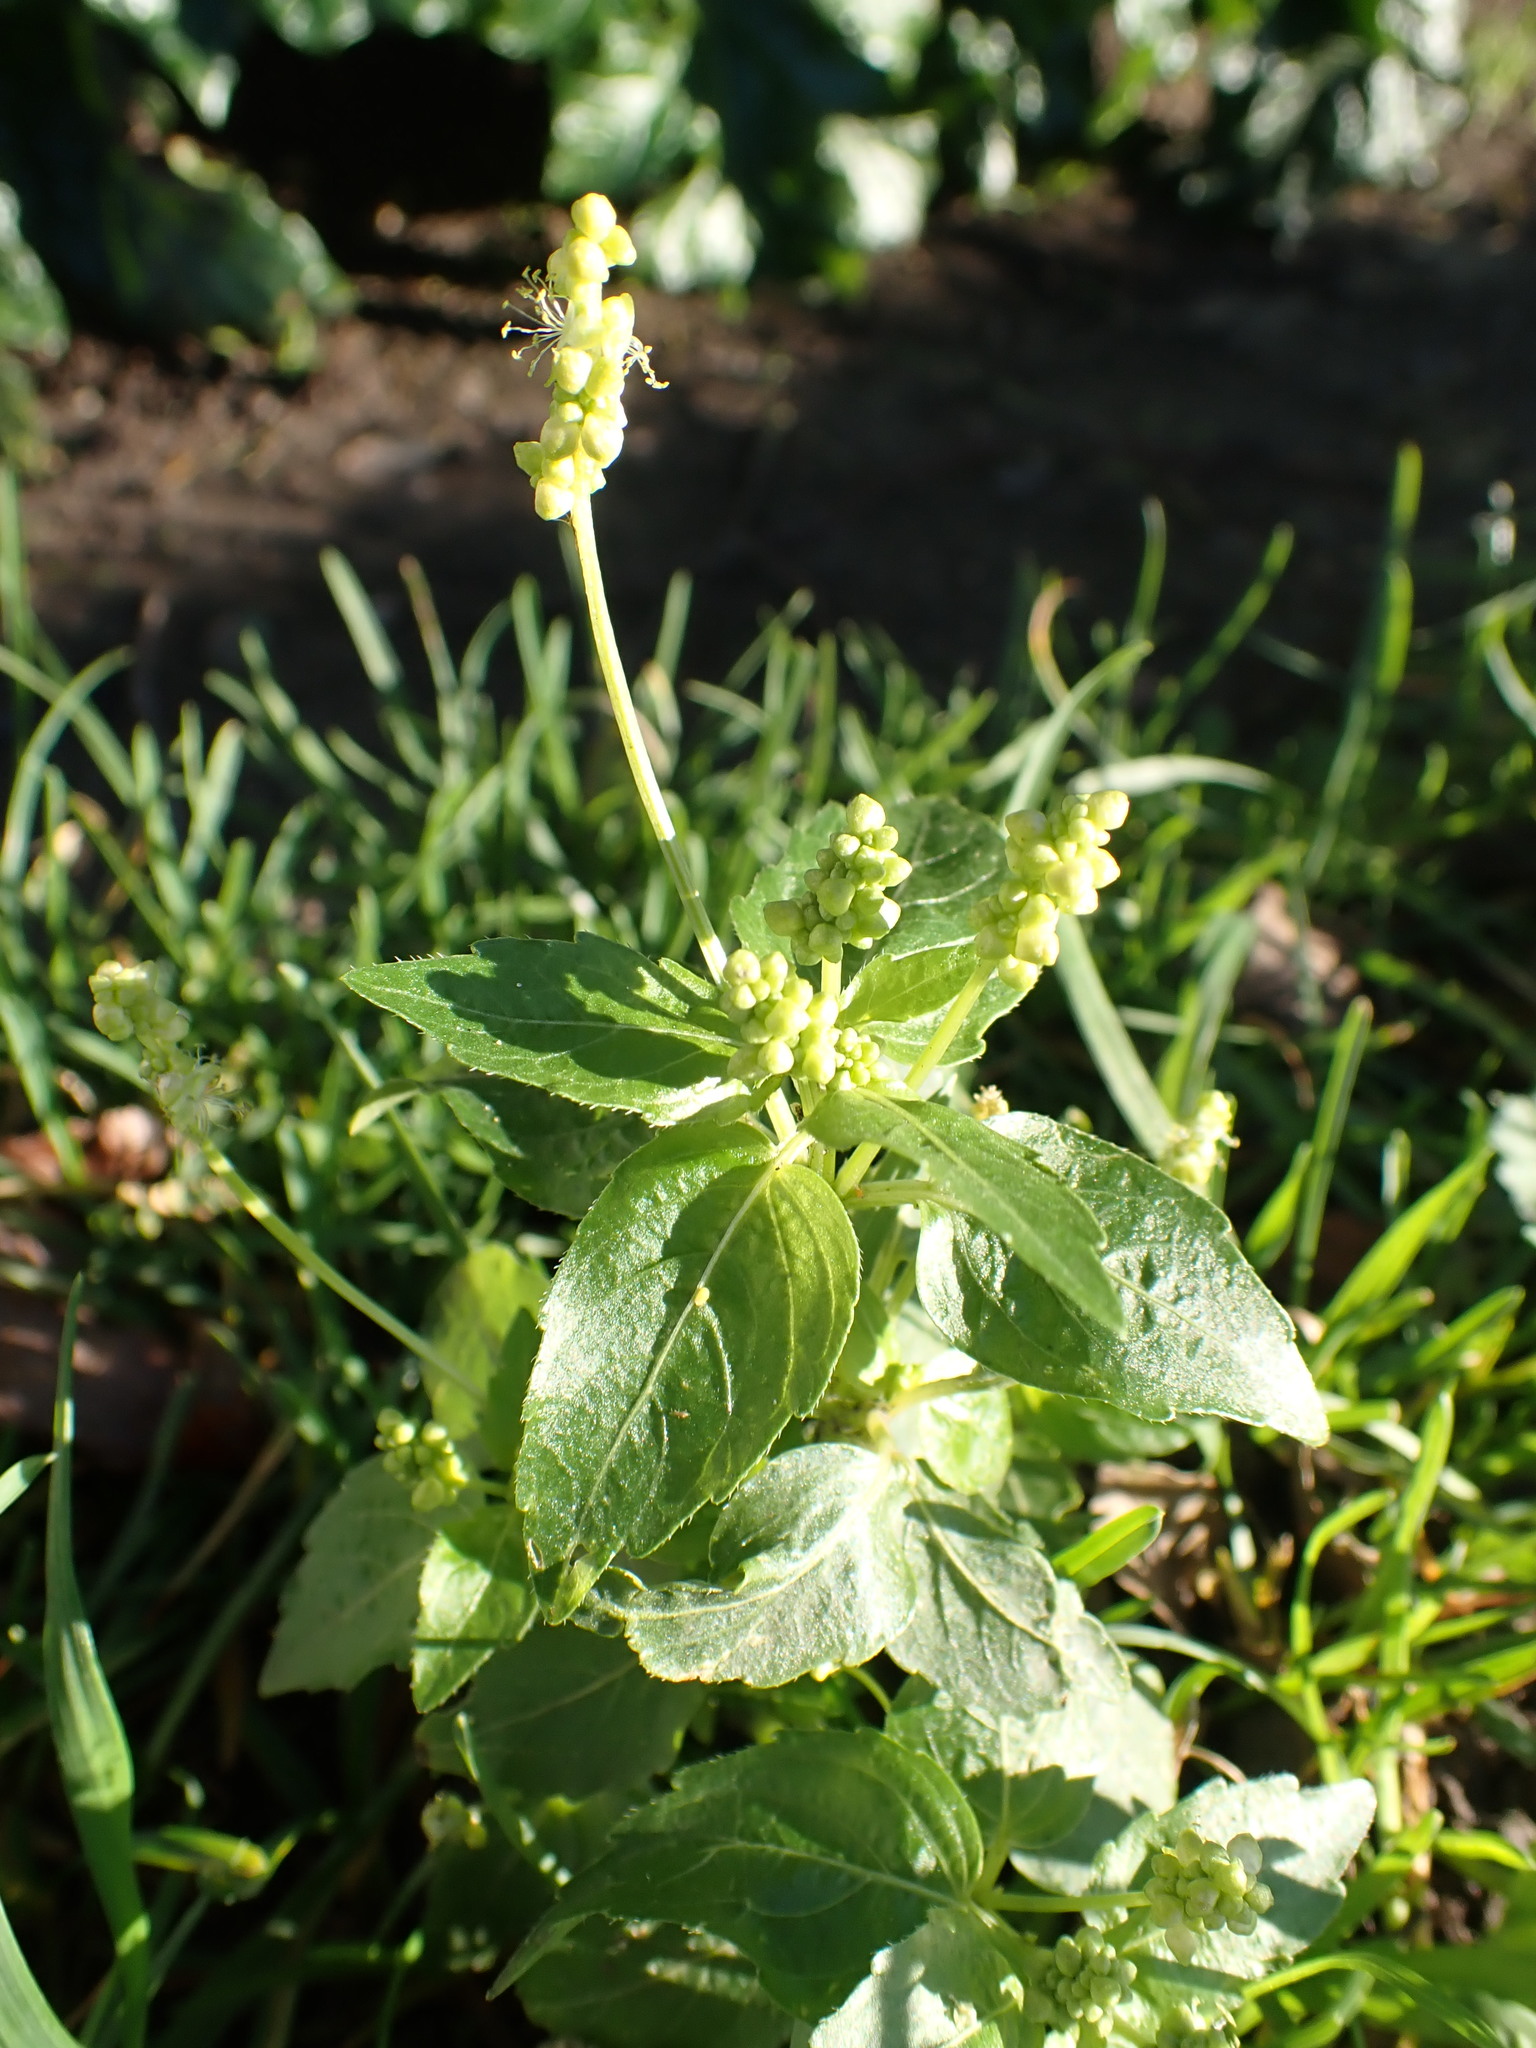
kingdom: Plantae
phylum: Tracheophyta
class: Magnoliopsida
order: Malpighiales
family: Euphorbiaceae
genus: Mercurialis
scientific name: Mercurialis annua
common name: Annual mercury
